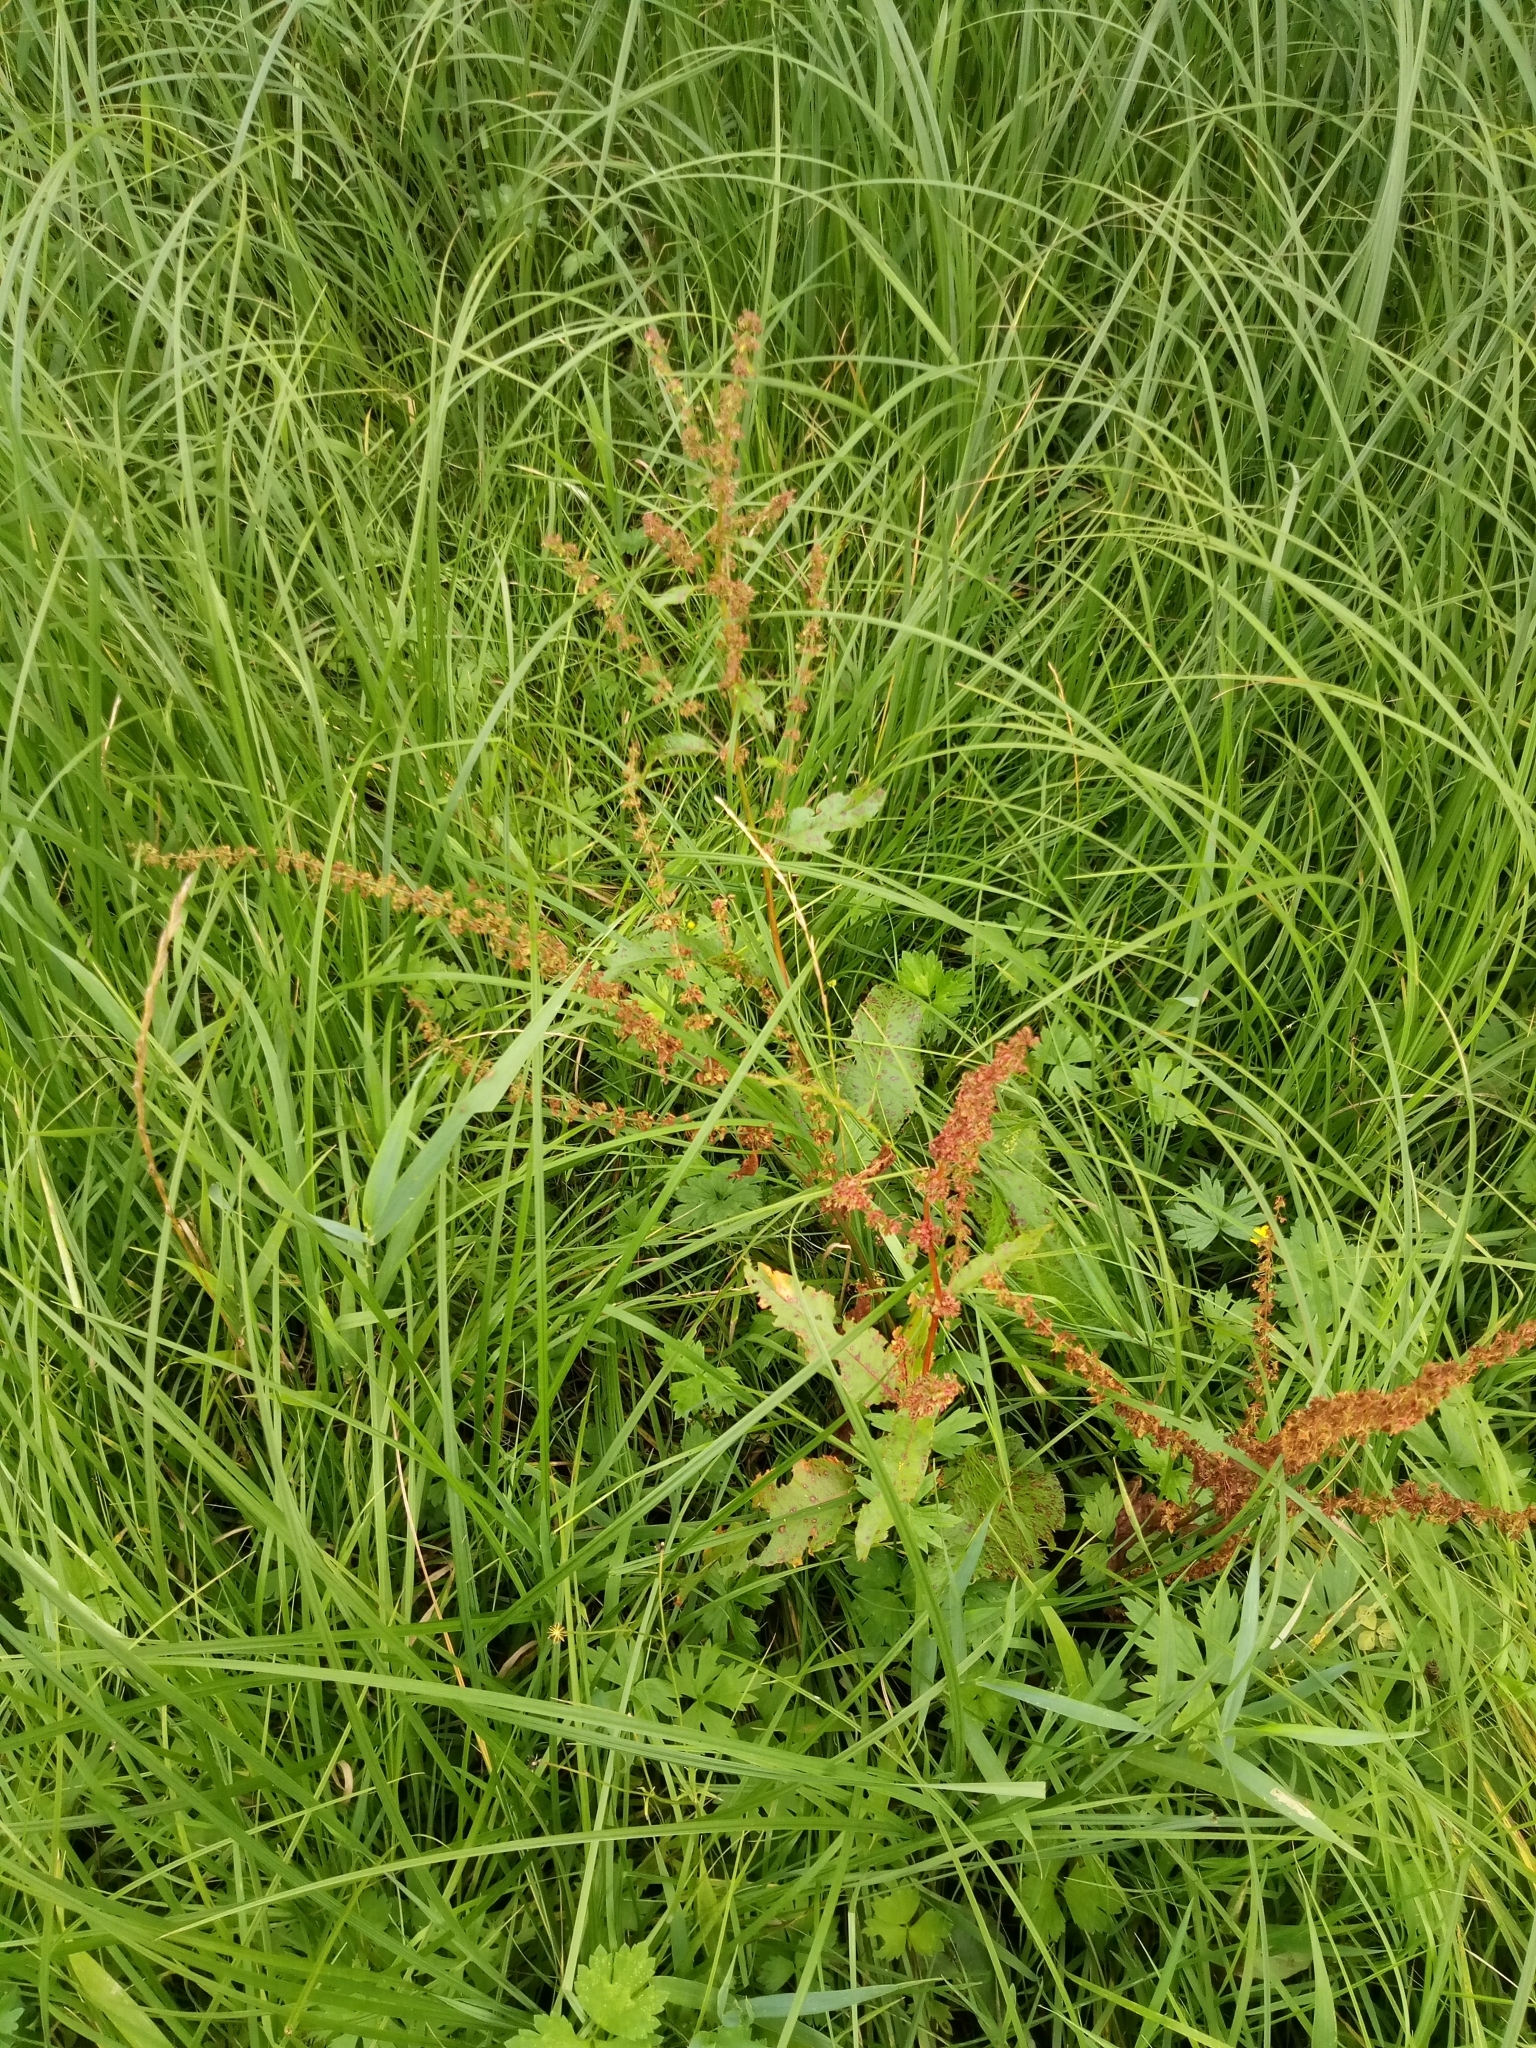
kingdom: Plantae
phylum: Tracheophyta
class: Magnoliopsida
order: Caryophyllales
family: Polygonaceae
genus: Rumex
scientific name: Rumex obtusifolius
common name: Bitter dock
